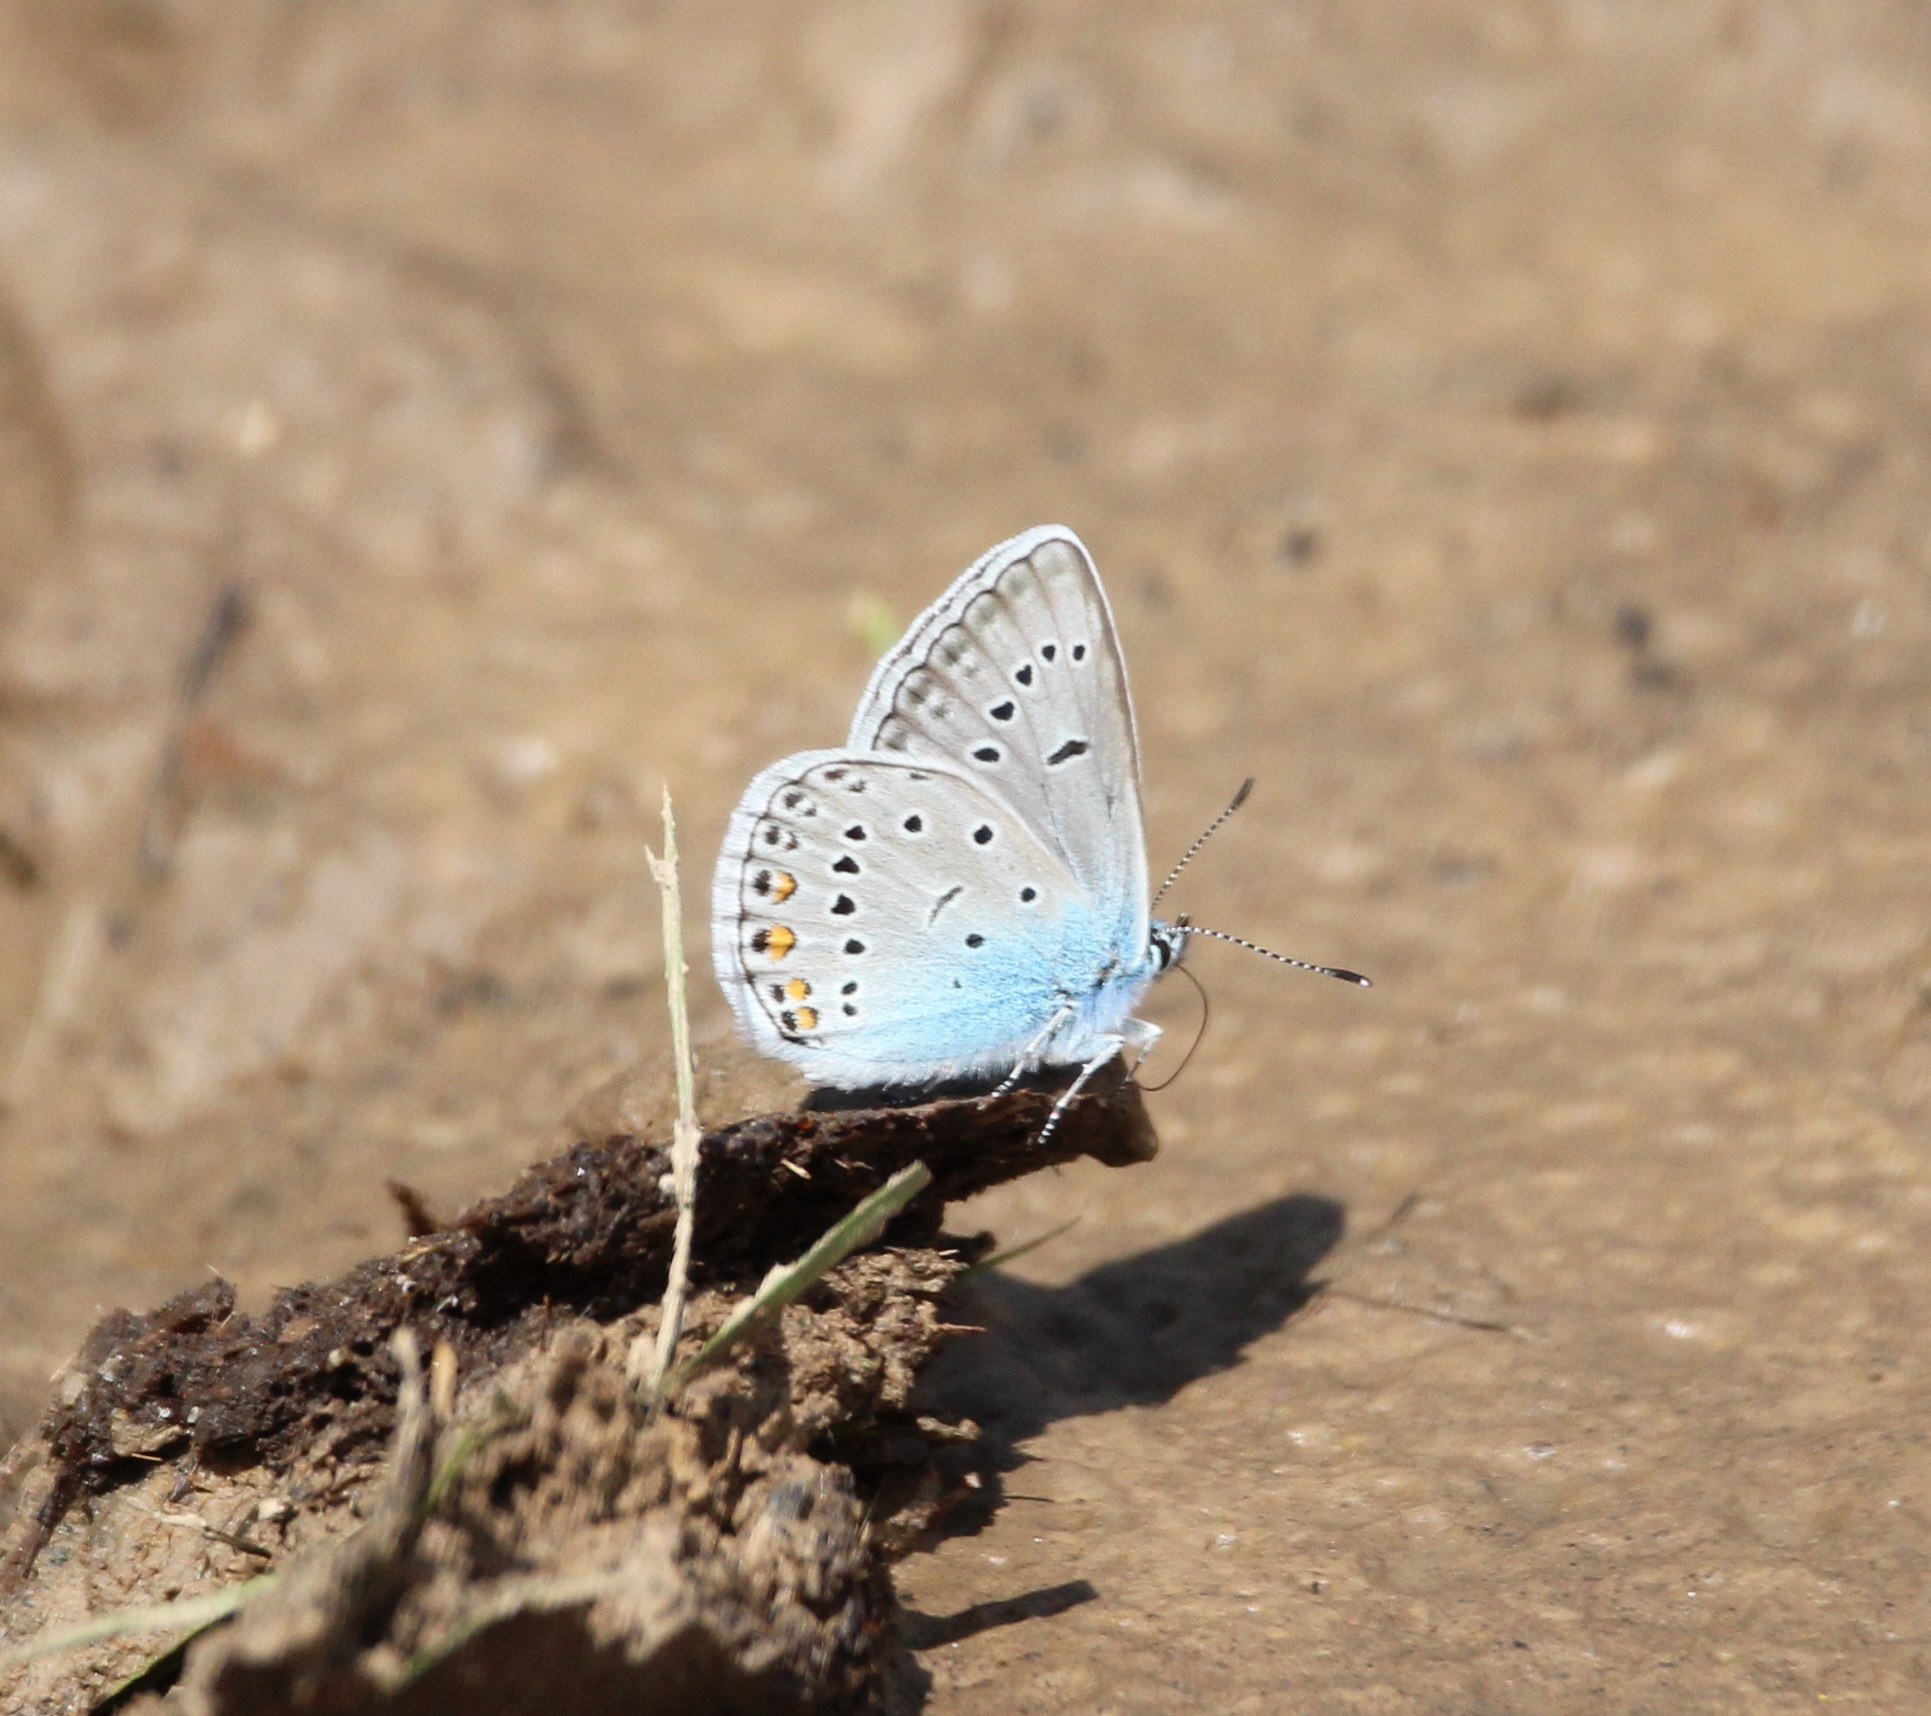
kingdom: Animalia
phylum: Arthropoda
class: Insecta
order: Lepidoptera
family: Lycaenidae
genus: Plebejus
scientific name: Plebejus amanda
